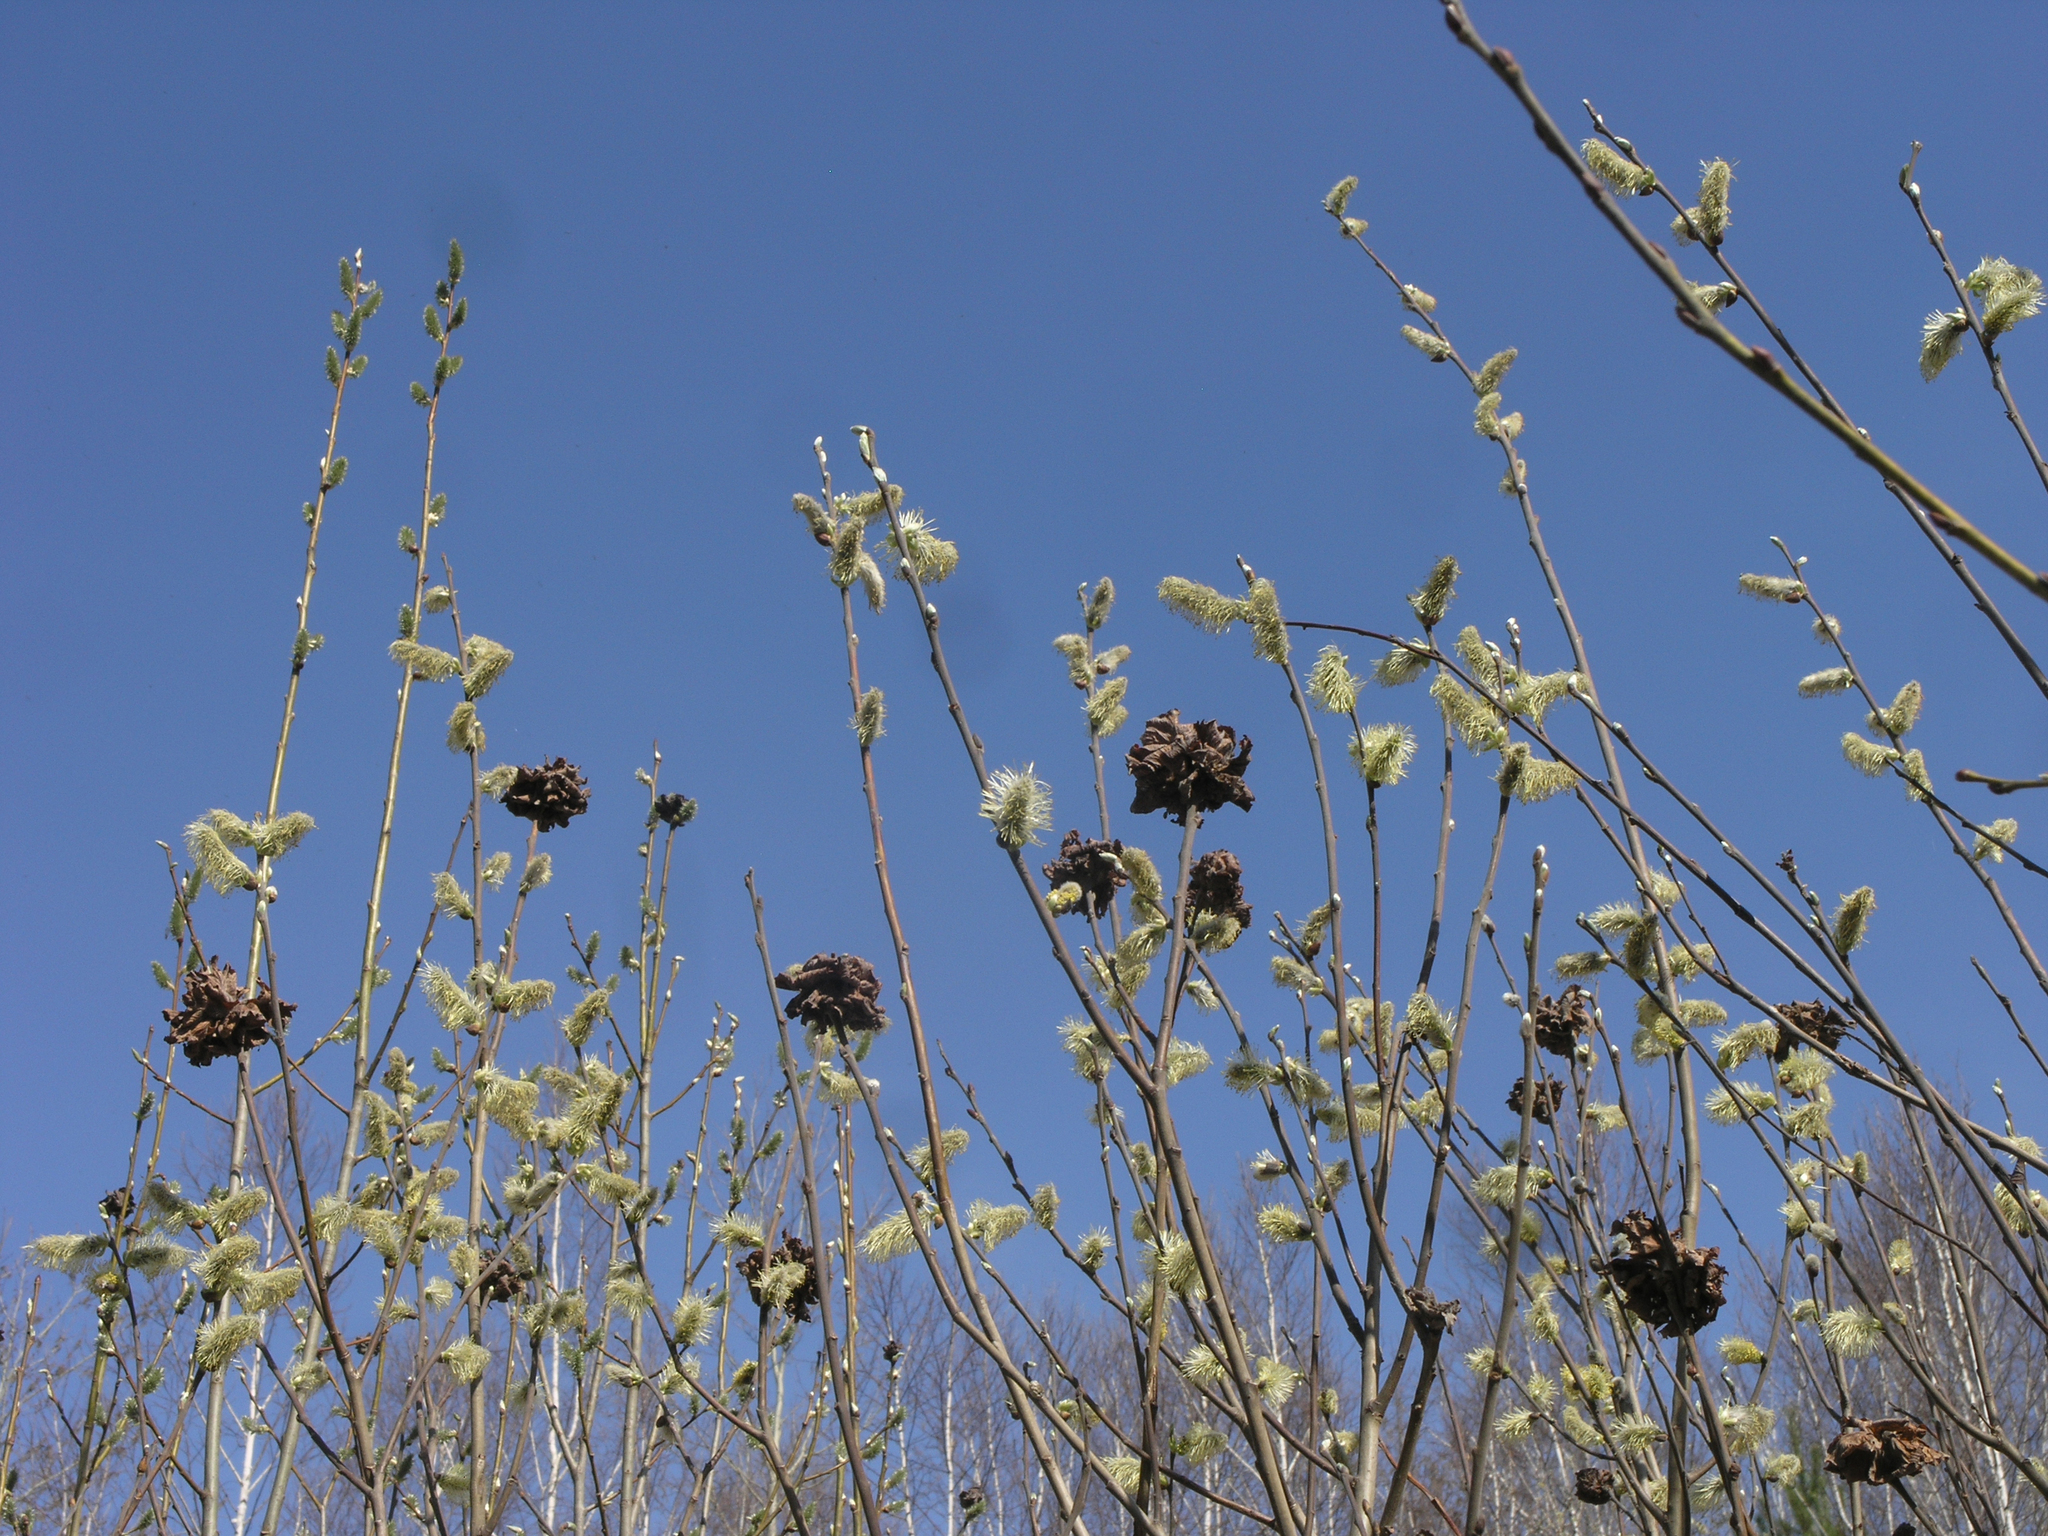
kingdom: Plantae
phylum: Tracheophyta
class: Magnoliopsida
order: Malpighiales
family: Salicaceae
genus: Salix
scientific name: Salix cinerea
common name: Common sallow
